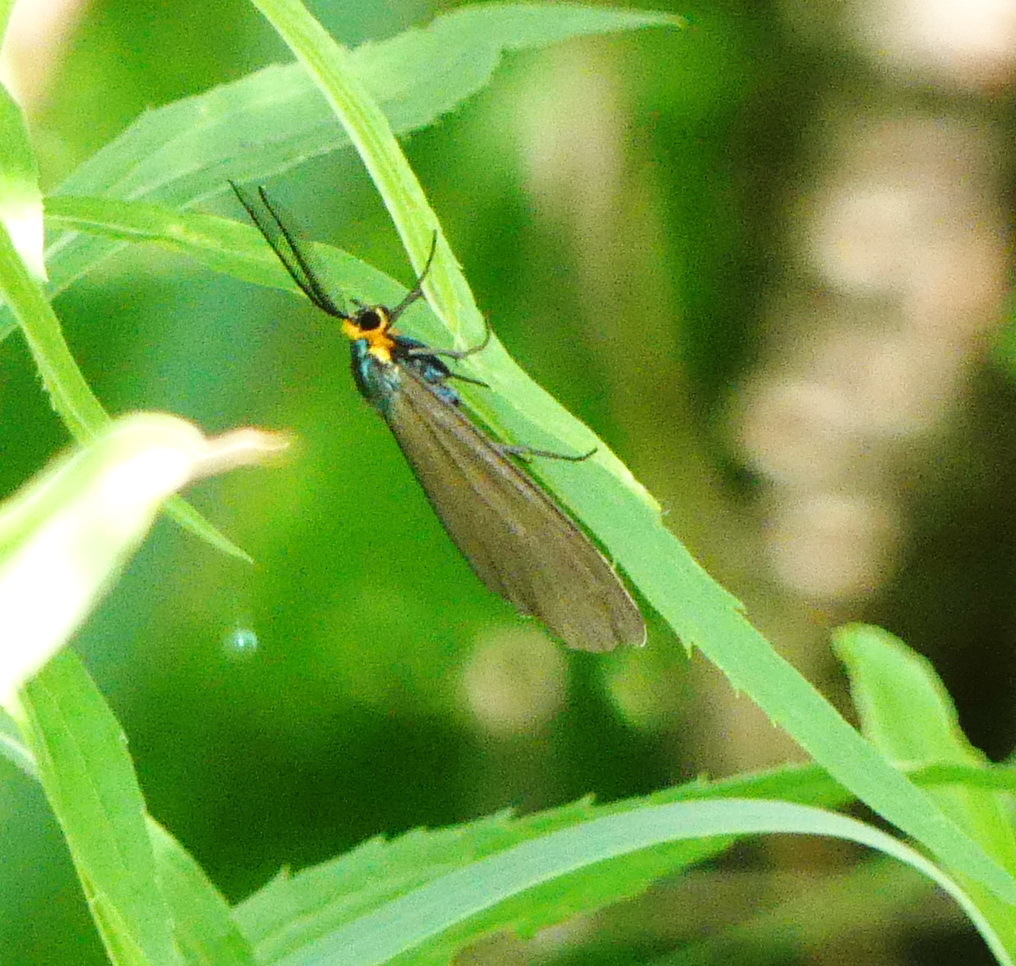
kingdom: Animalia
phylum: Arthropoda
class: Insecta
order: Lepidoptera
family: Erebidae
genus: Ctenucha
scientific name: Ctenucha virginica
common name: Virginia ctenucha moth
